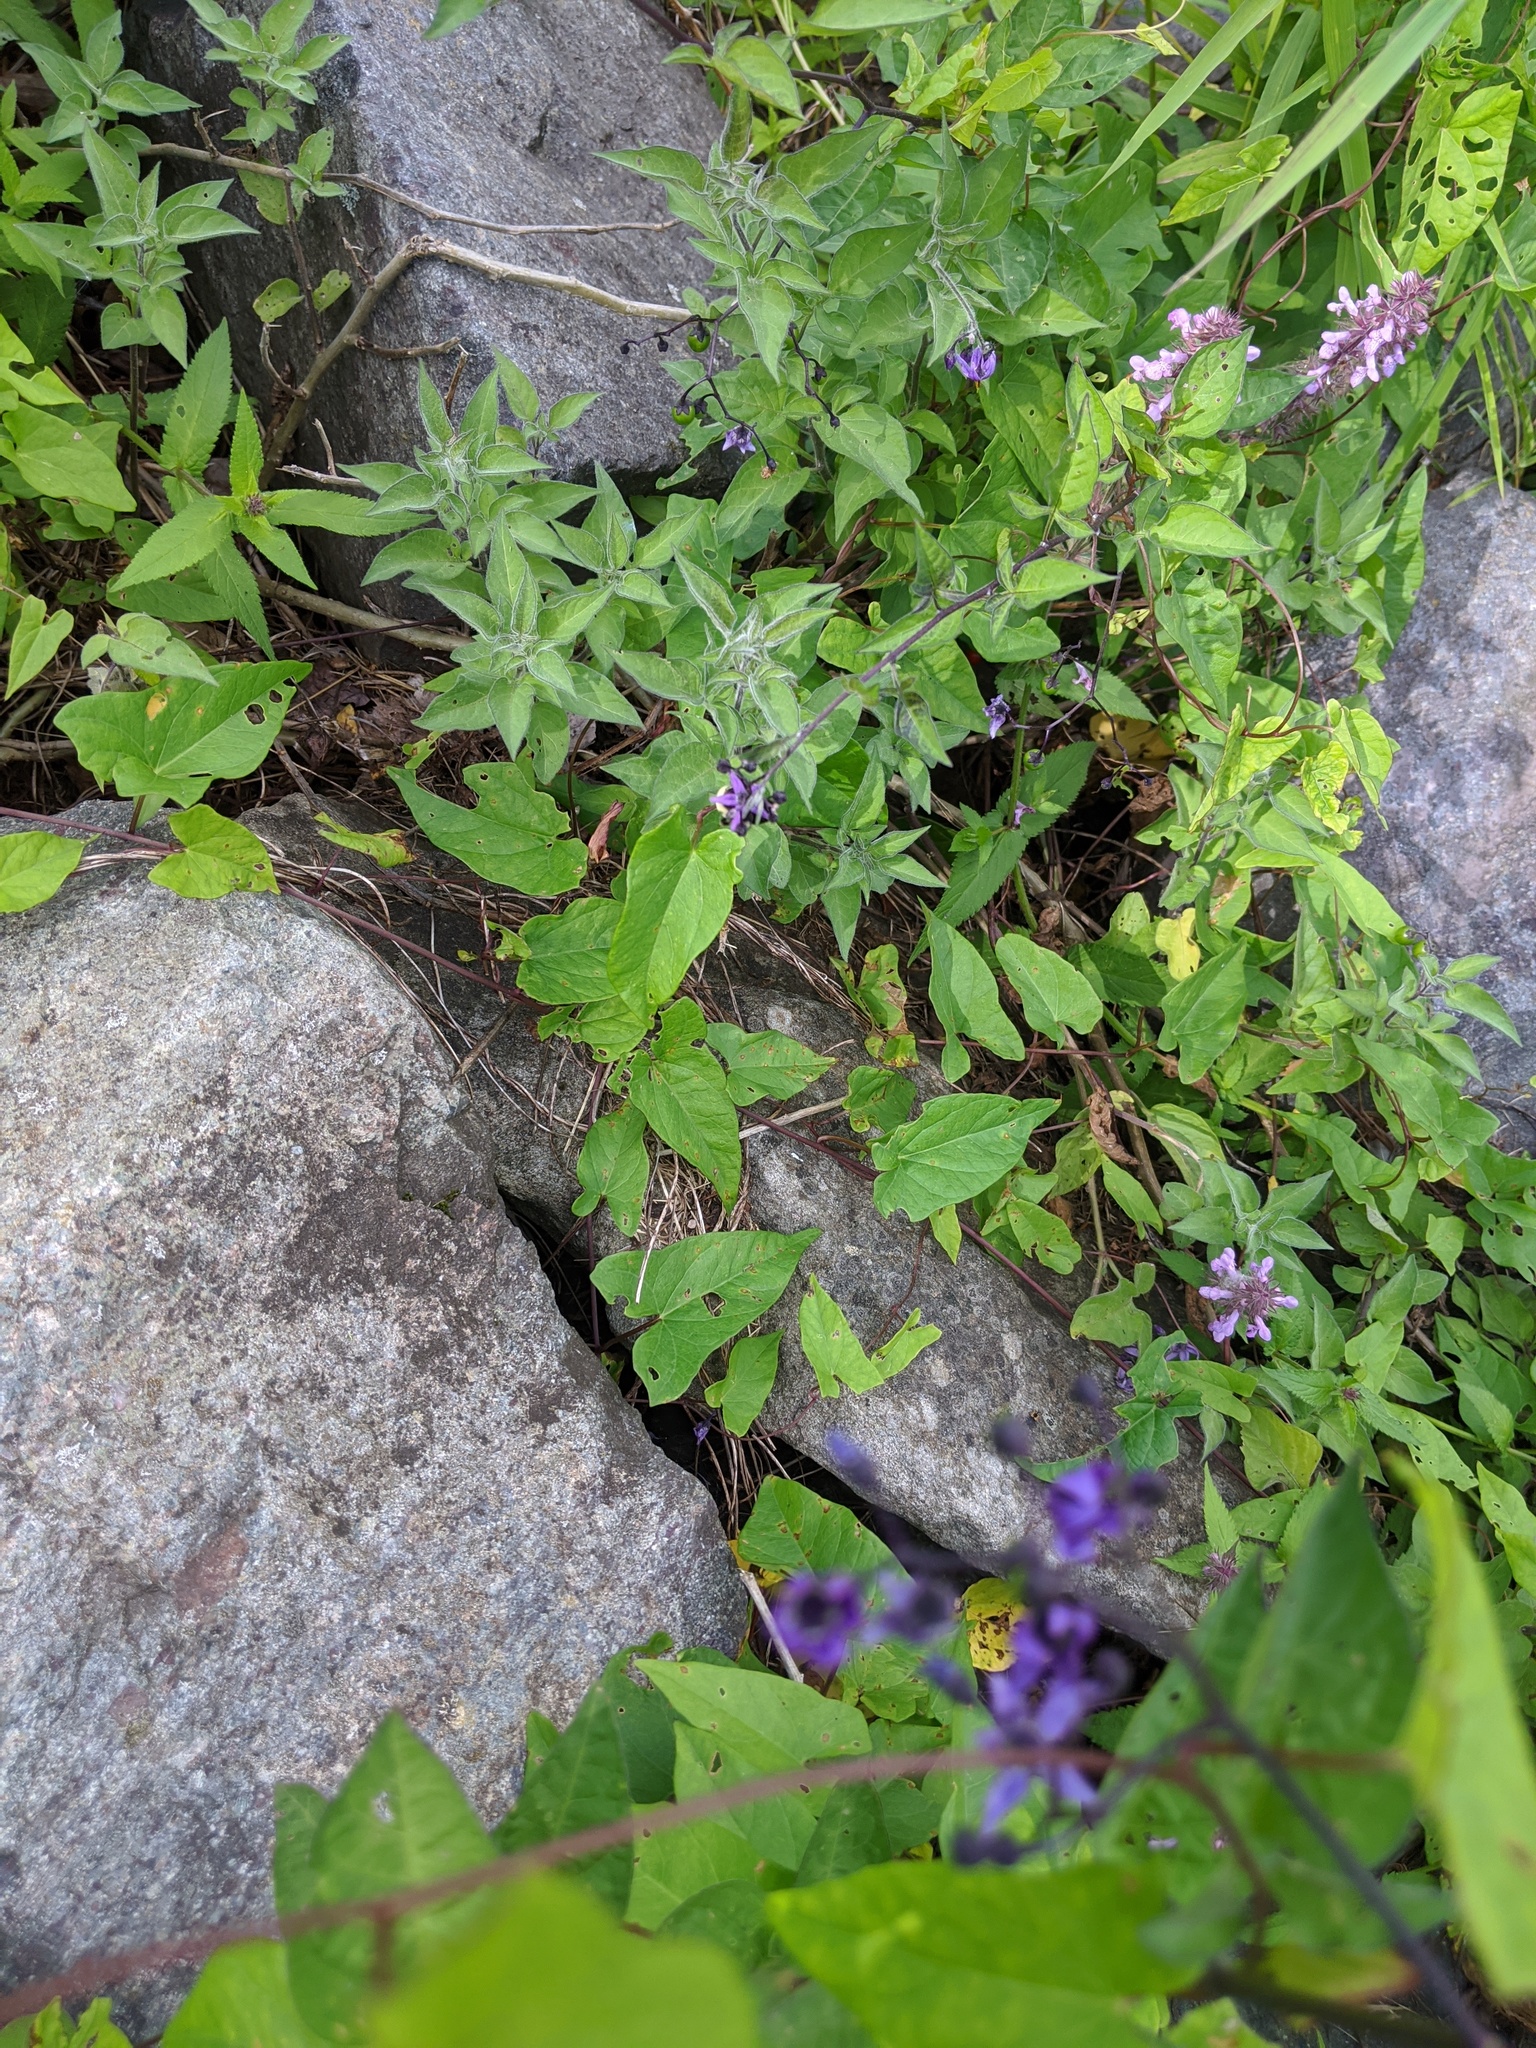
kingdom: Plantae
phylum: Tracheophyta
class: Magnoliopsida
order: Solanales
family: Solanaceae
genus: Solanum
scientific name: Solanum dulcamara
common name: Climbing nightshade
